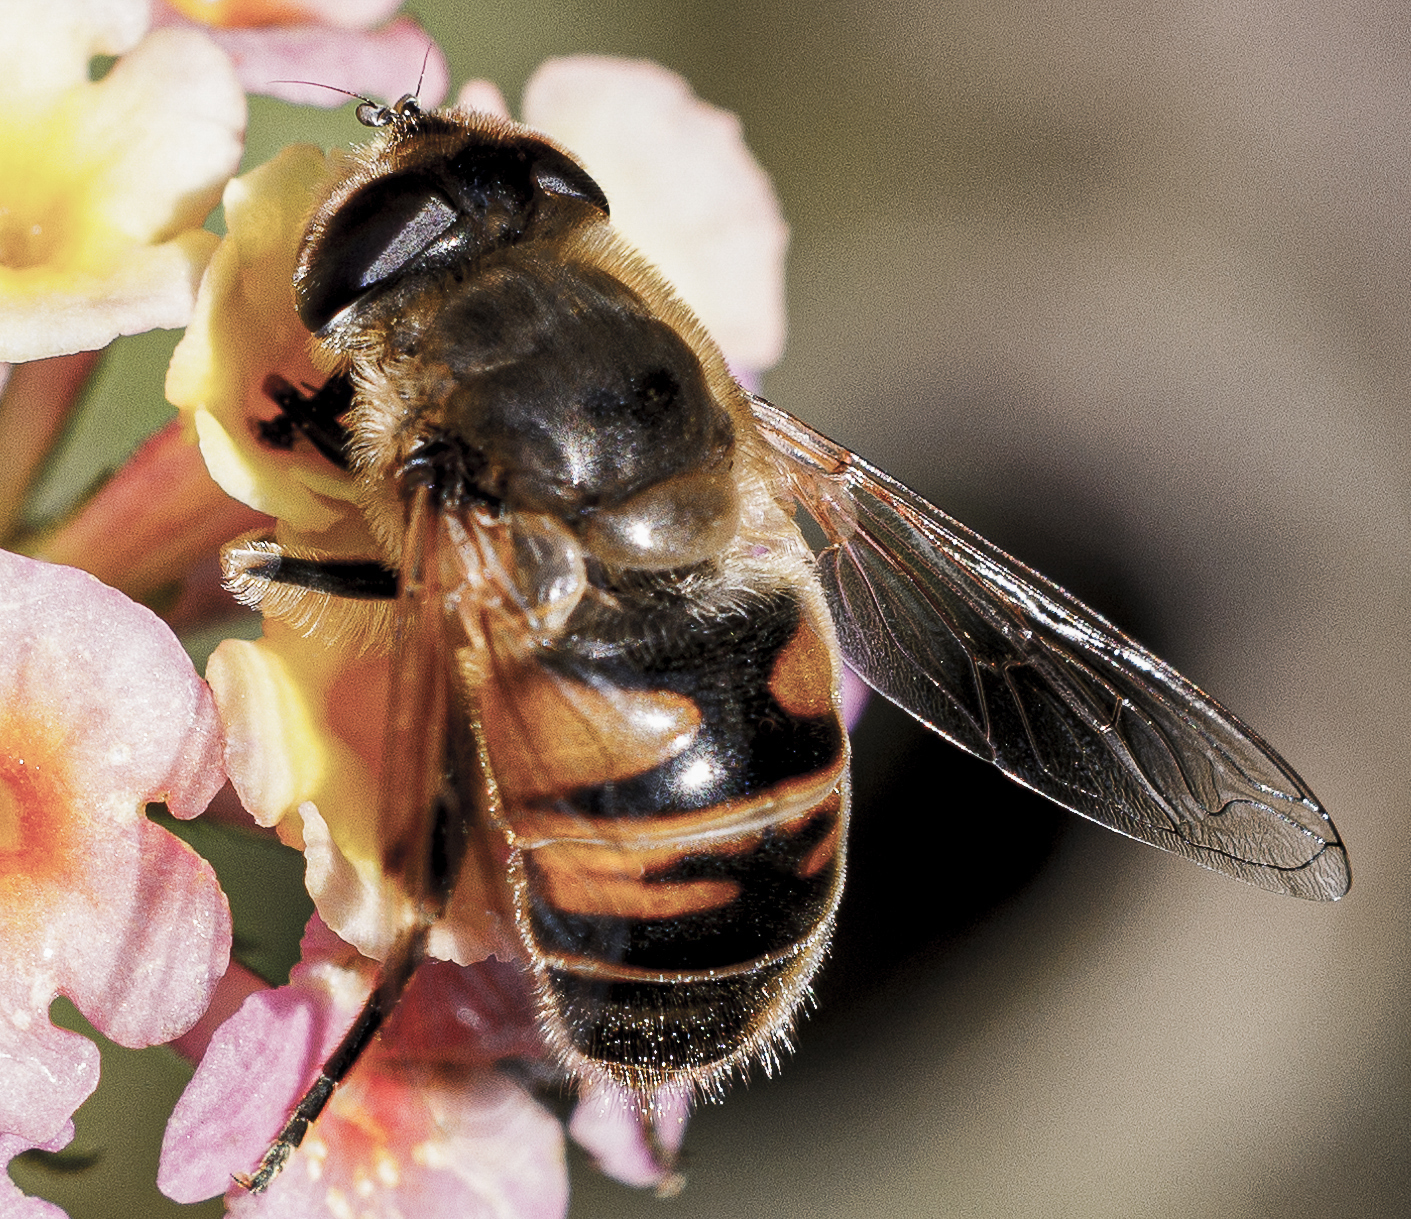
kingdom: Animalia
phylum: Arthropoda
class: Insecta
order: Diptera
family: Syrphidae
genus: Eristalis
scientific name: Eristalis tenax
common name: Drone fly
